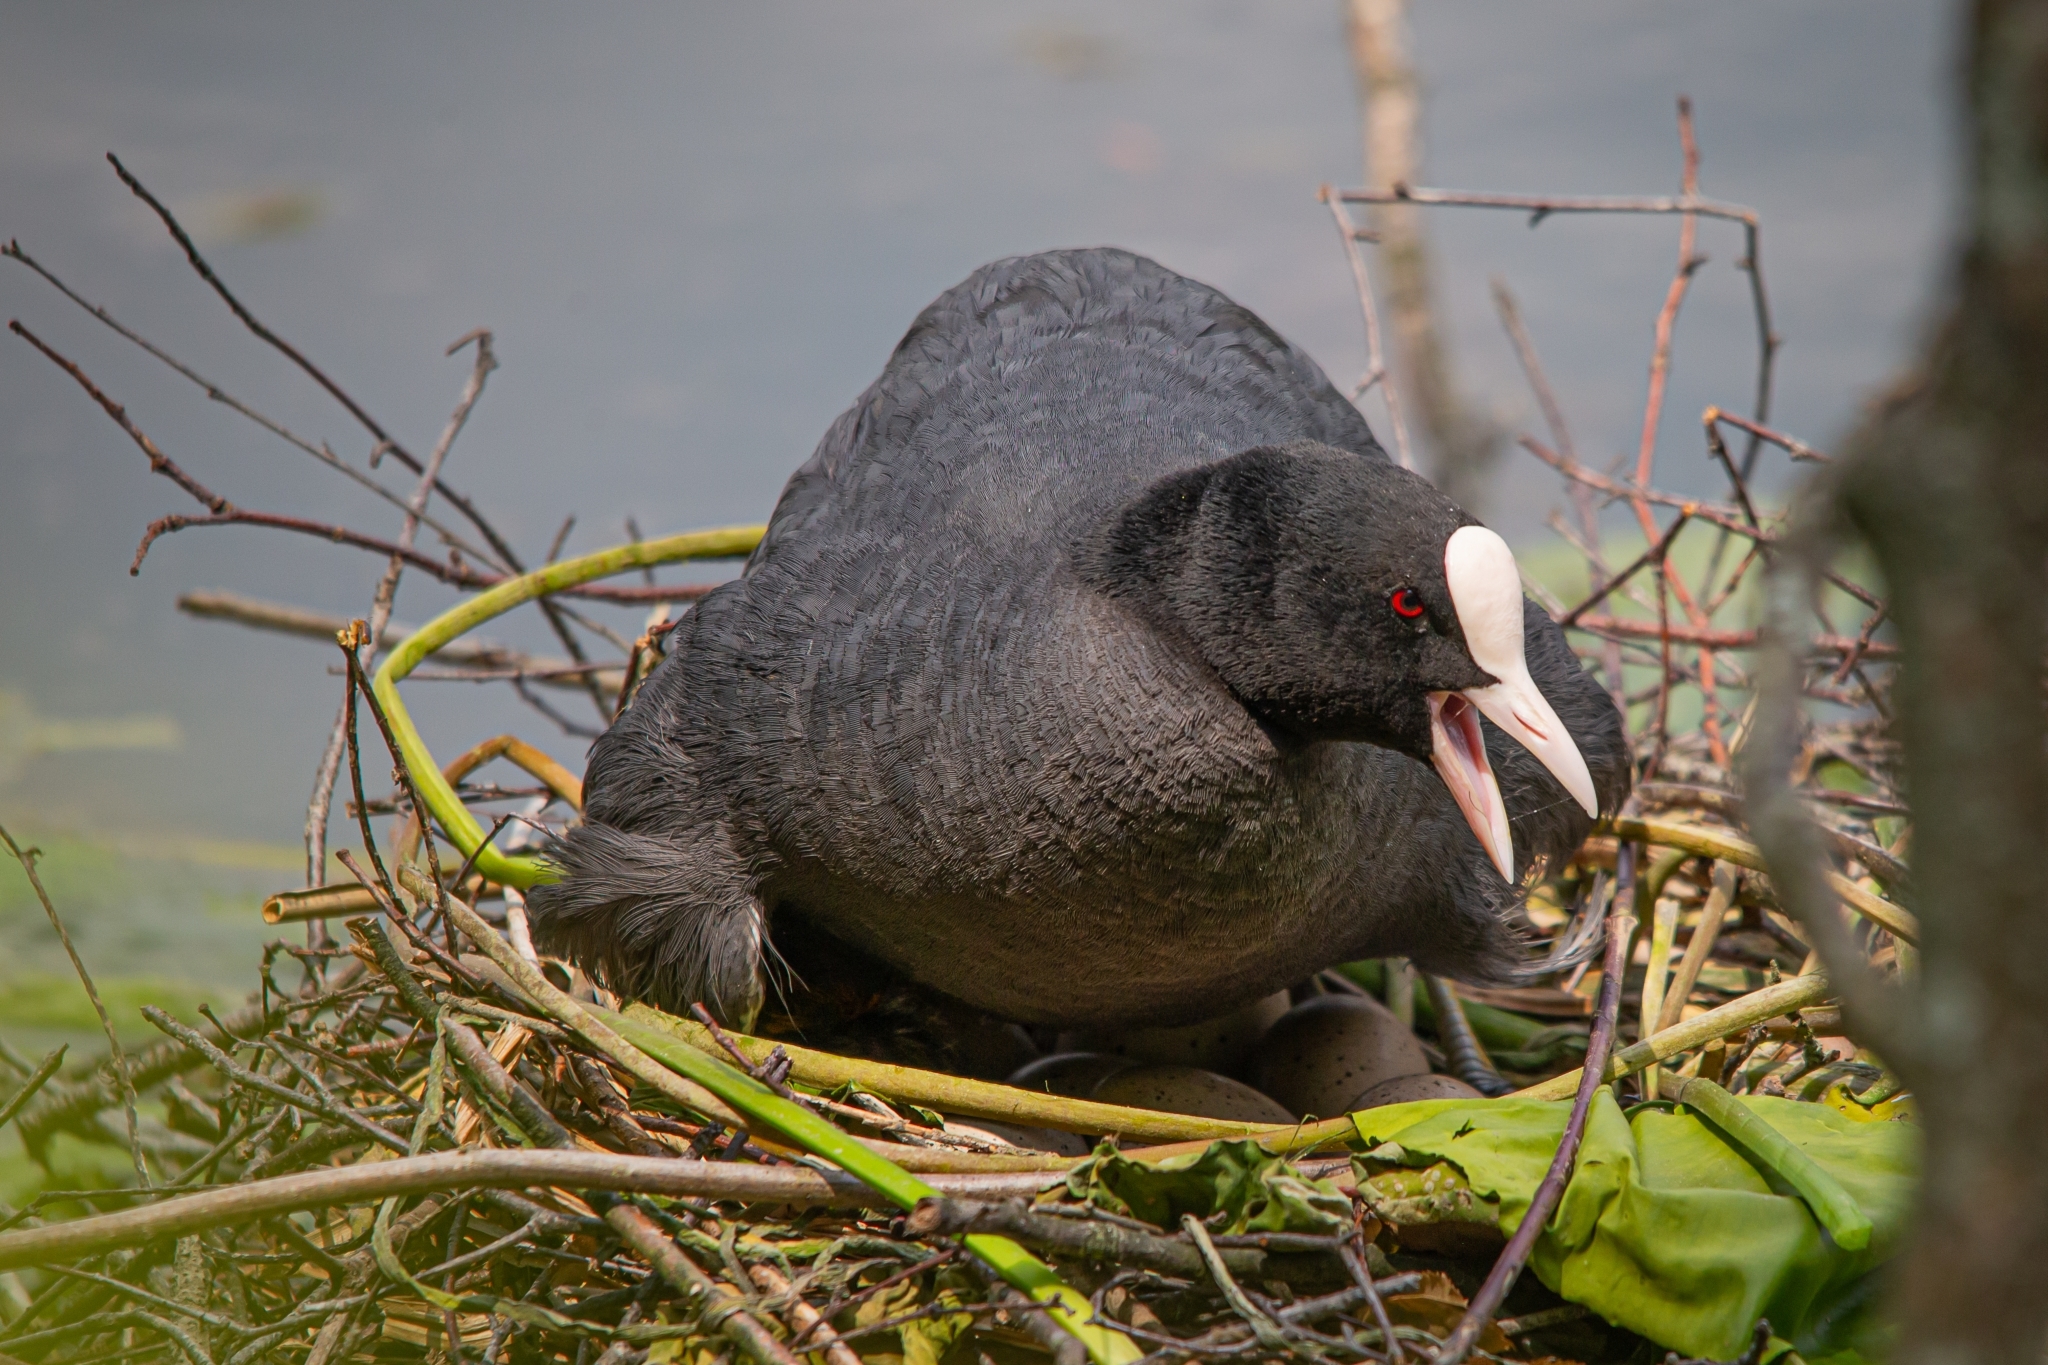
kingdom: Animalia
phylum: Chordata
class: Aves
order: Gruiformes
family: Rallidae
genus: Fulica
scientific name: Fulica atra
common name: Eurasian coot
